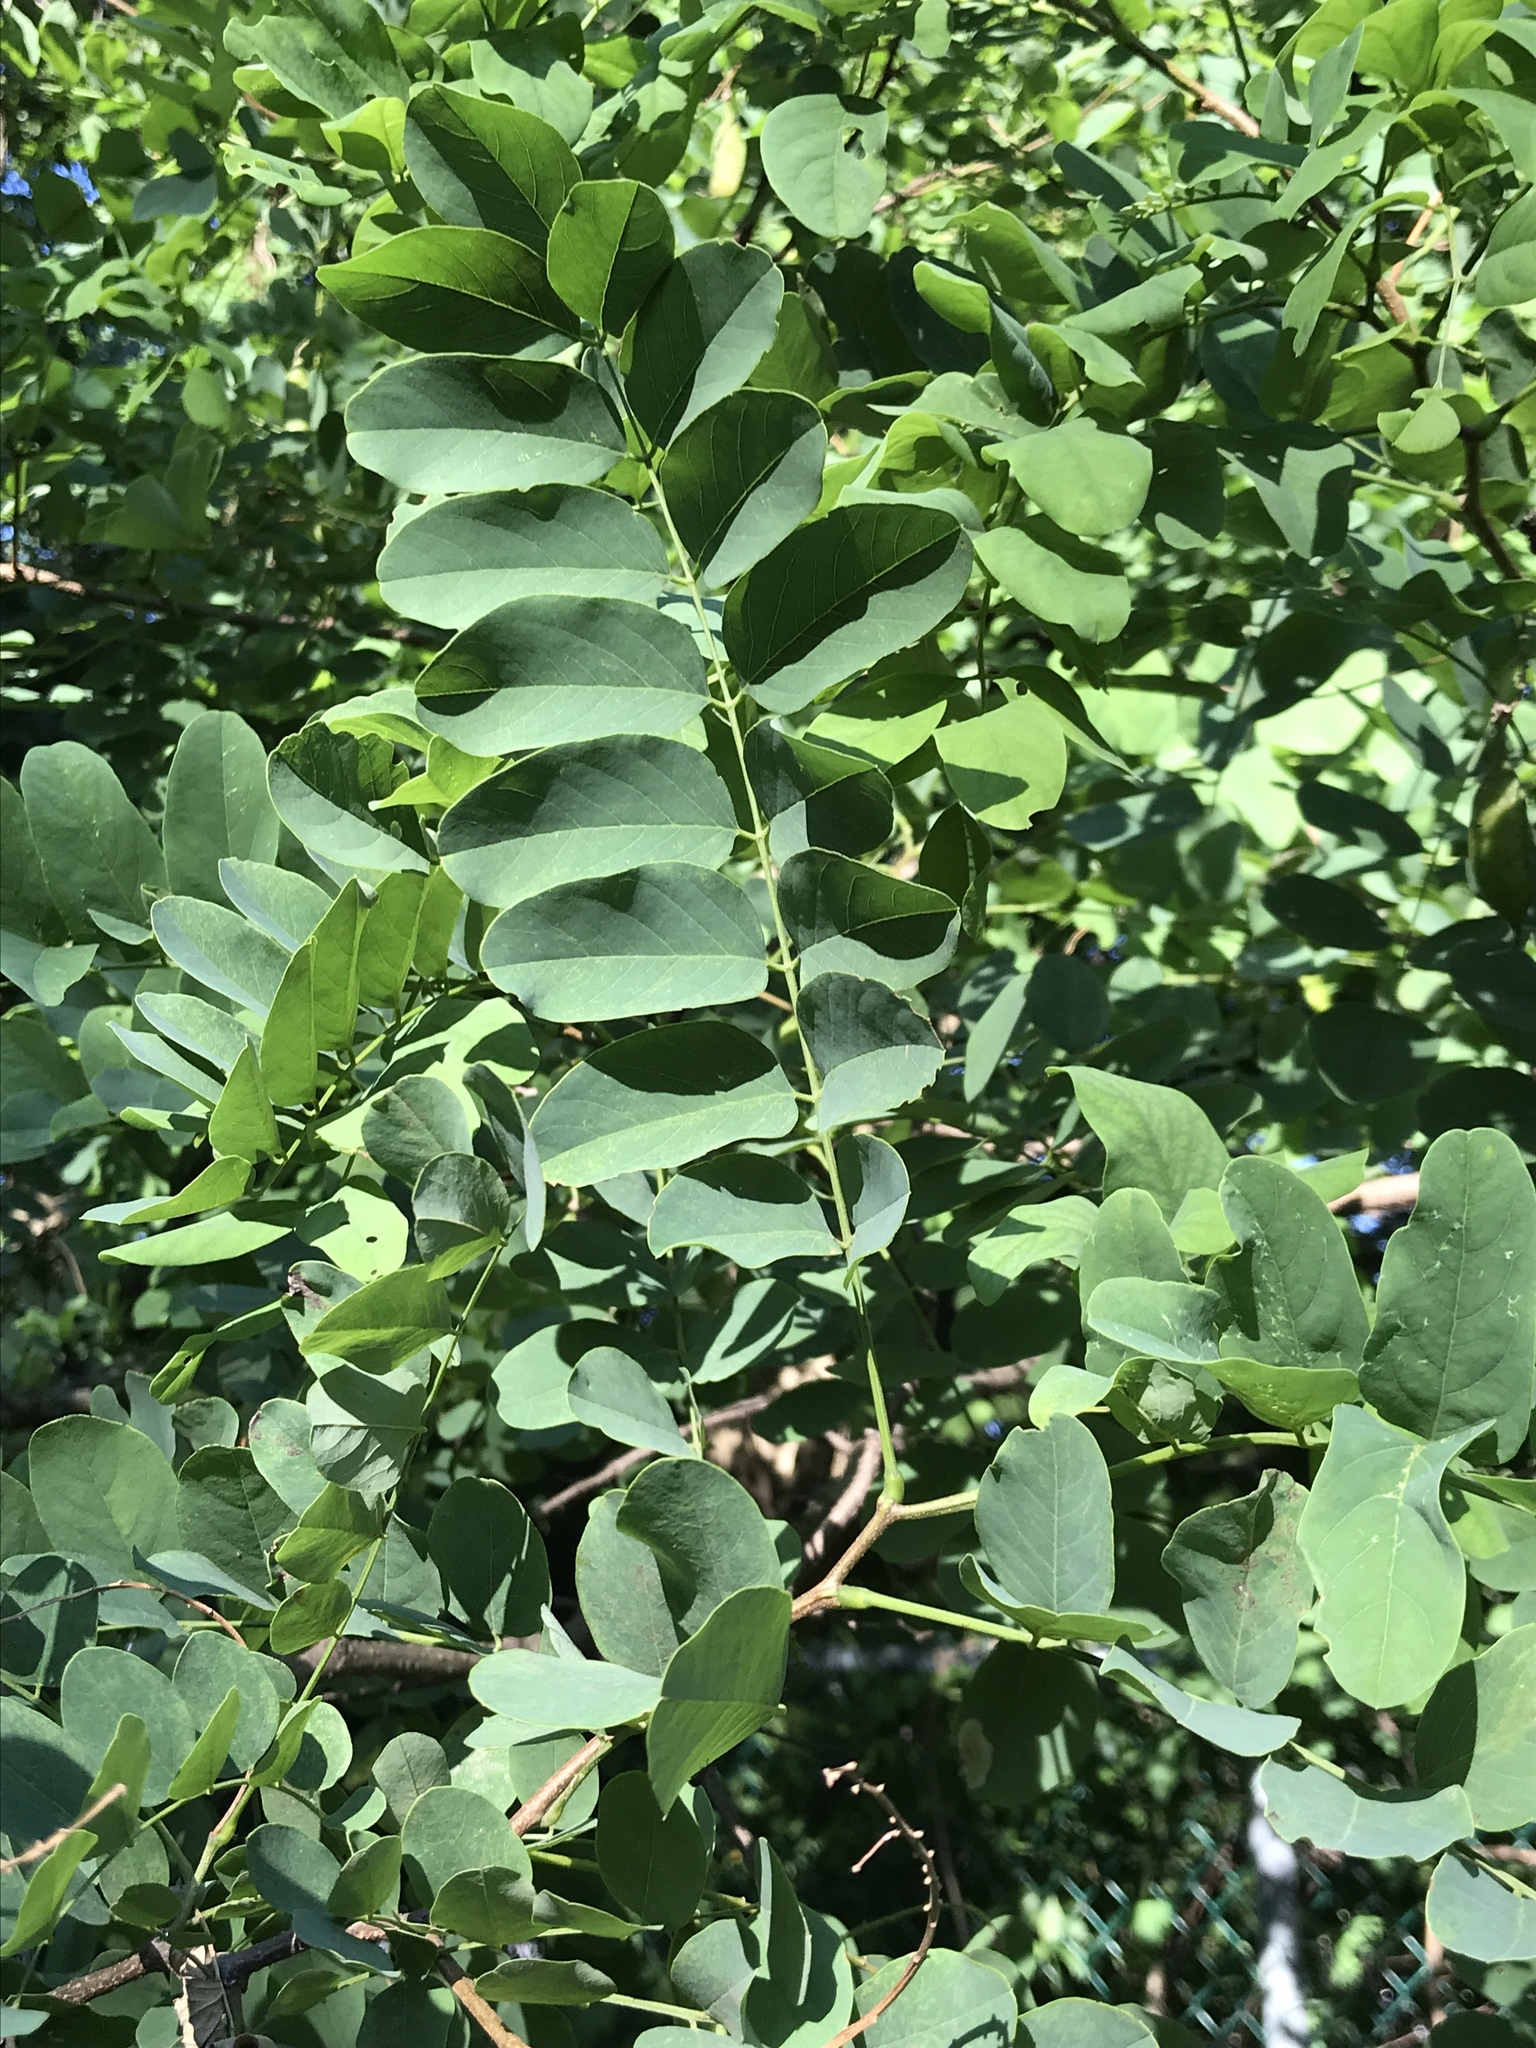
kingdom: Plantae
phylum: Tracheophyta
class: Magnoliopsida
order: Fabales
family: Fabaceae
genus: Robinia
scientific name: Robinia pseudoacacia
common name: Black locust
